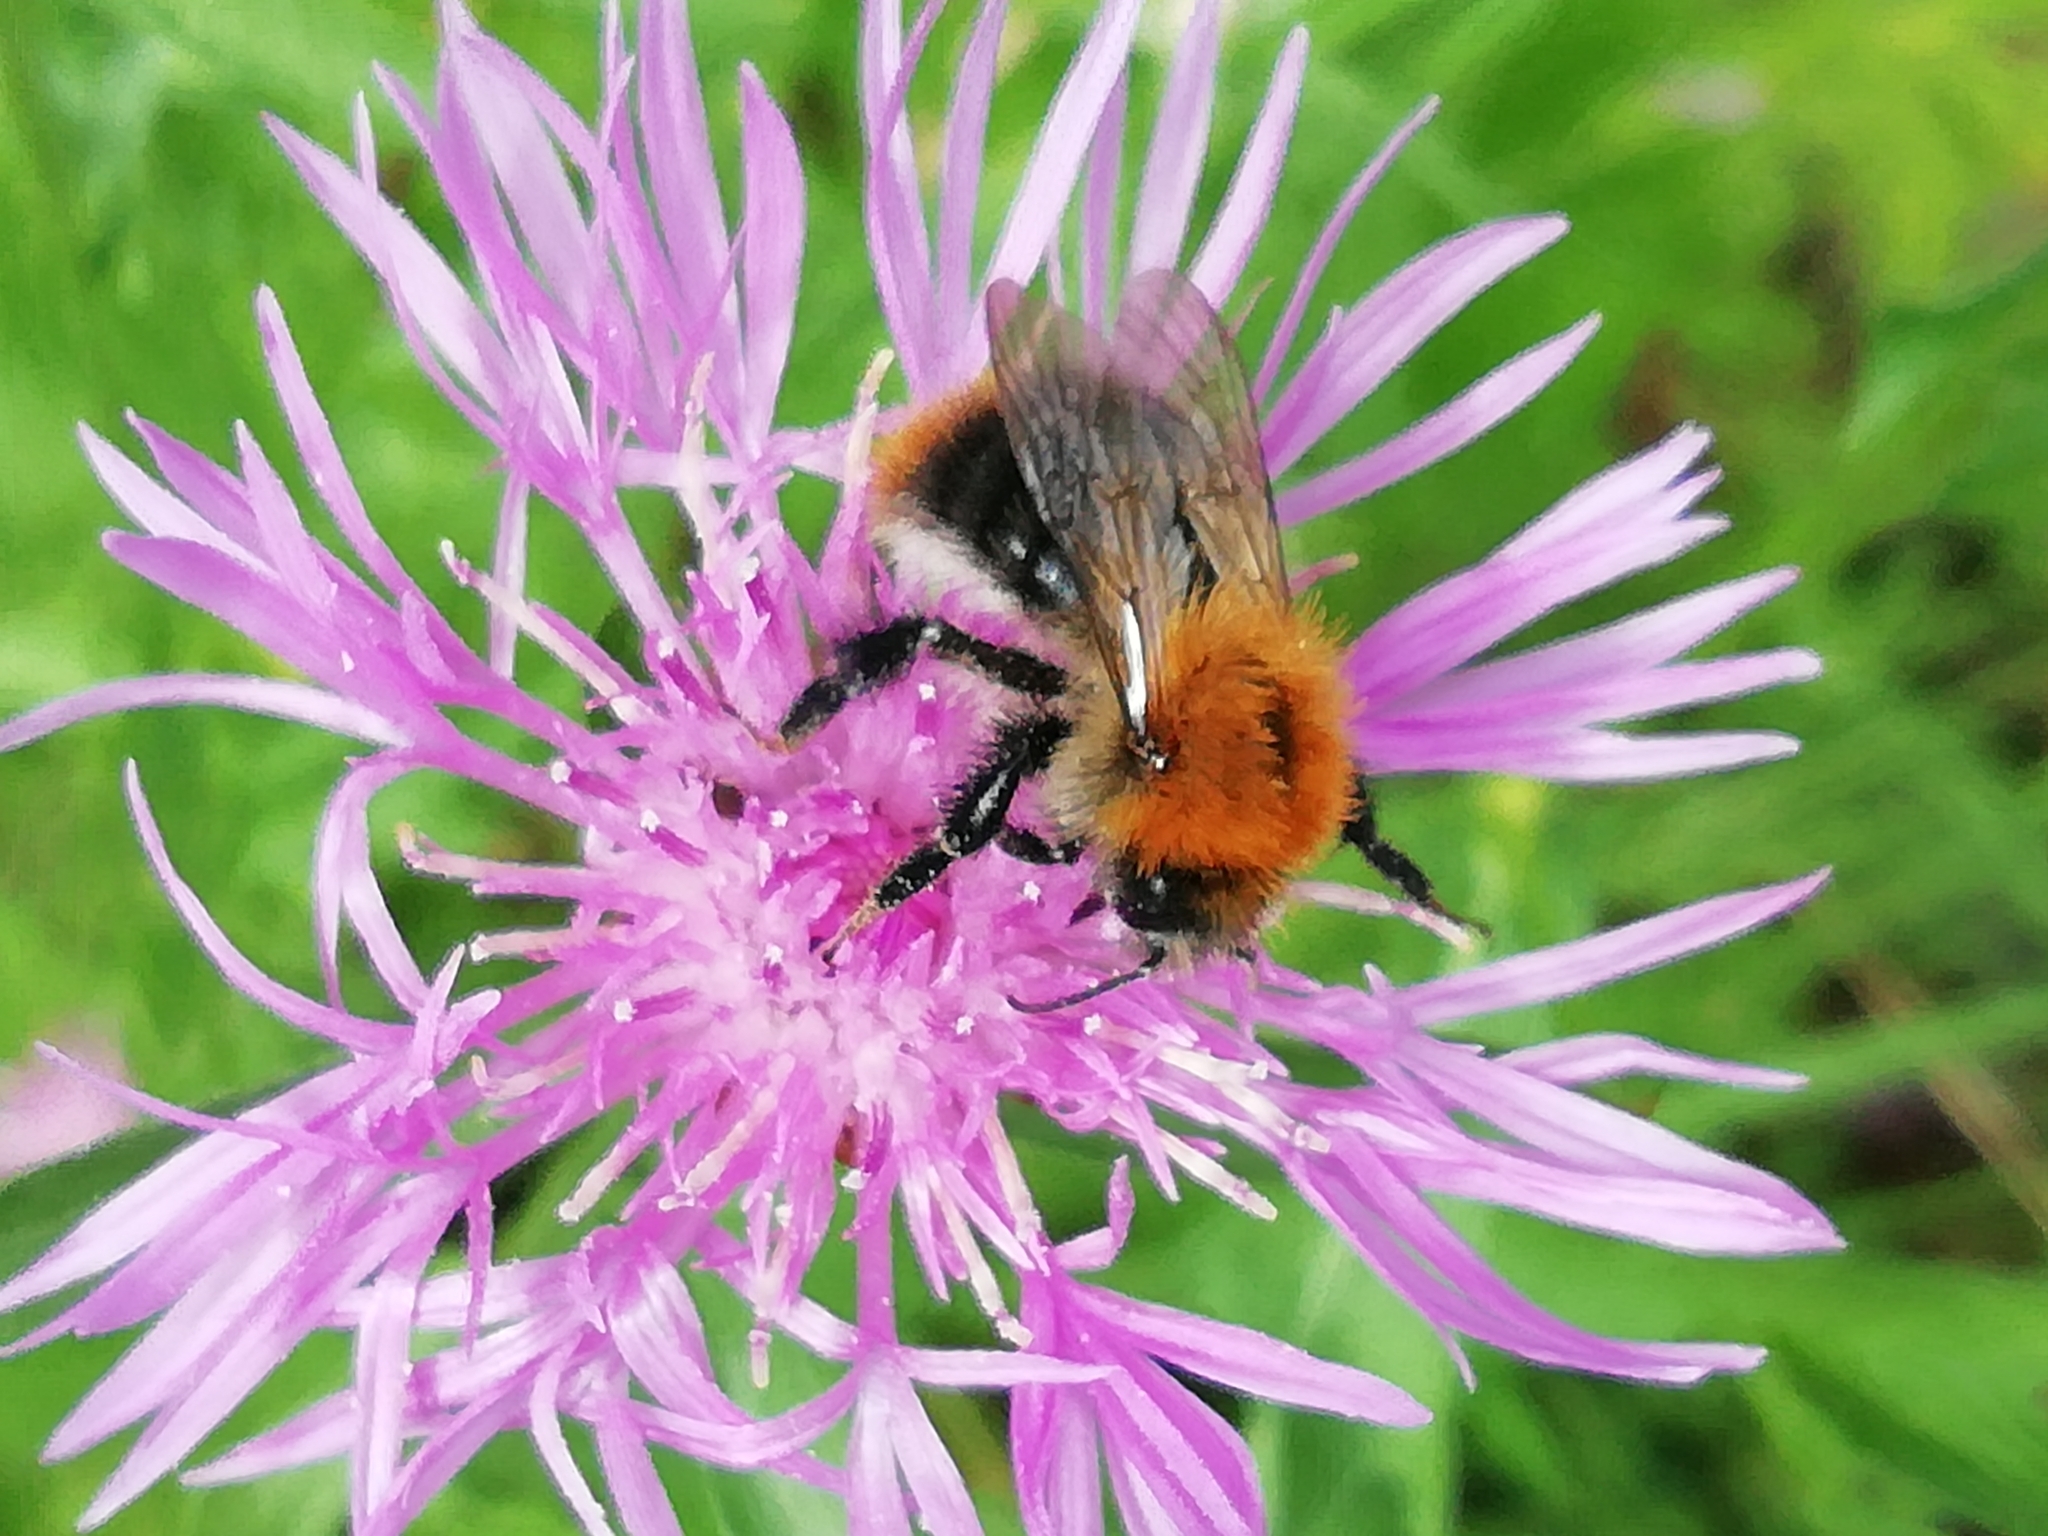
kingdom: Animalia
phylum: Arthropoda
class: Insecta
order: Hymenoptera
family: Apidae
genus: Bombus
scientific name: Bombus pascuorum
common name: Common carder bee
